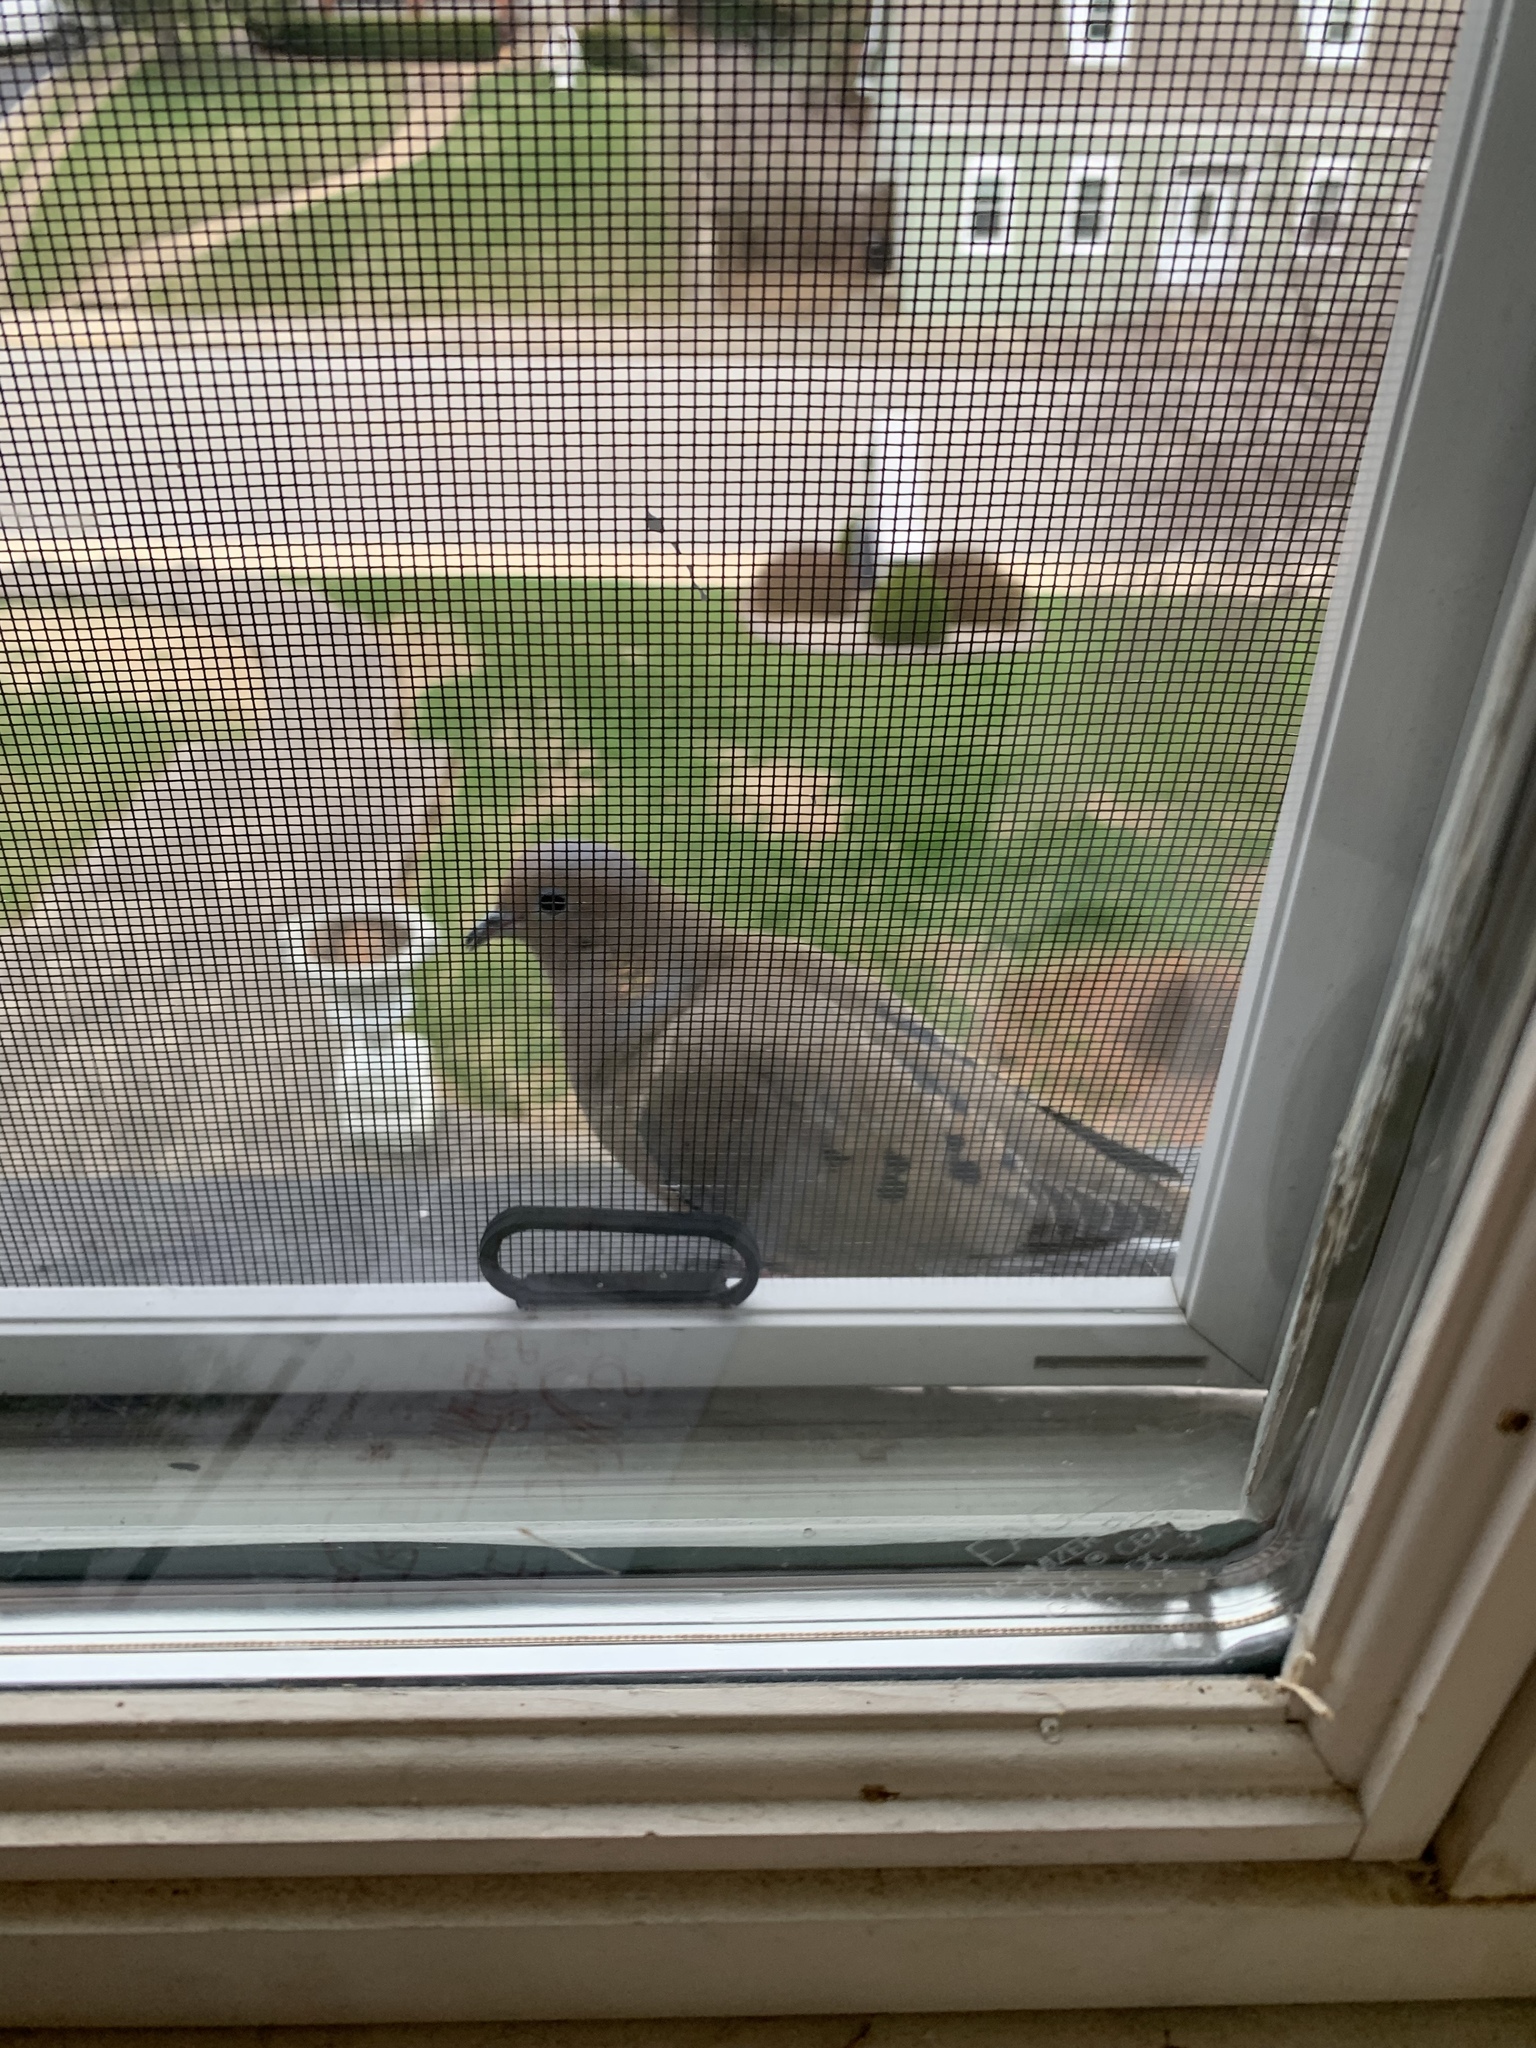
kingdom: Animalia
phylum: Chordata
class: Aves
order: Columbiformes
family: Columbidae
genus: Zenaida
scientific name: Zenaida macroura
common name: Mourning dove
